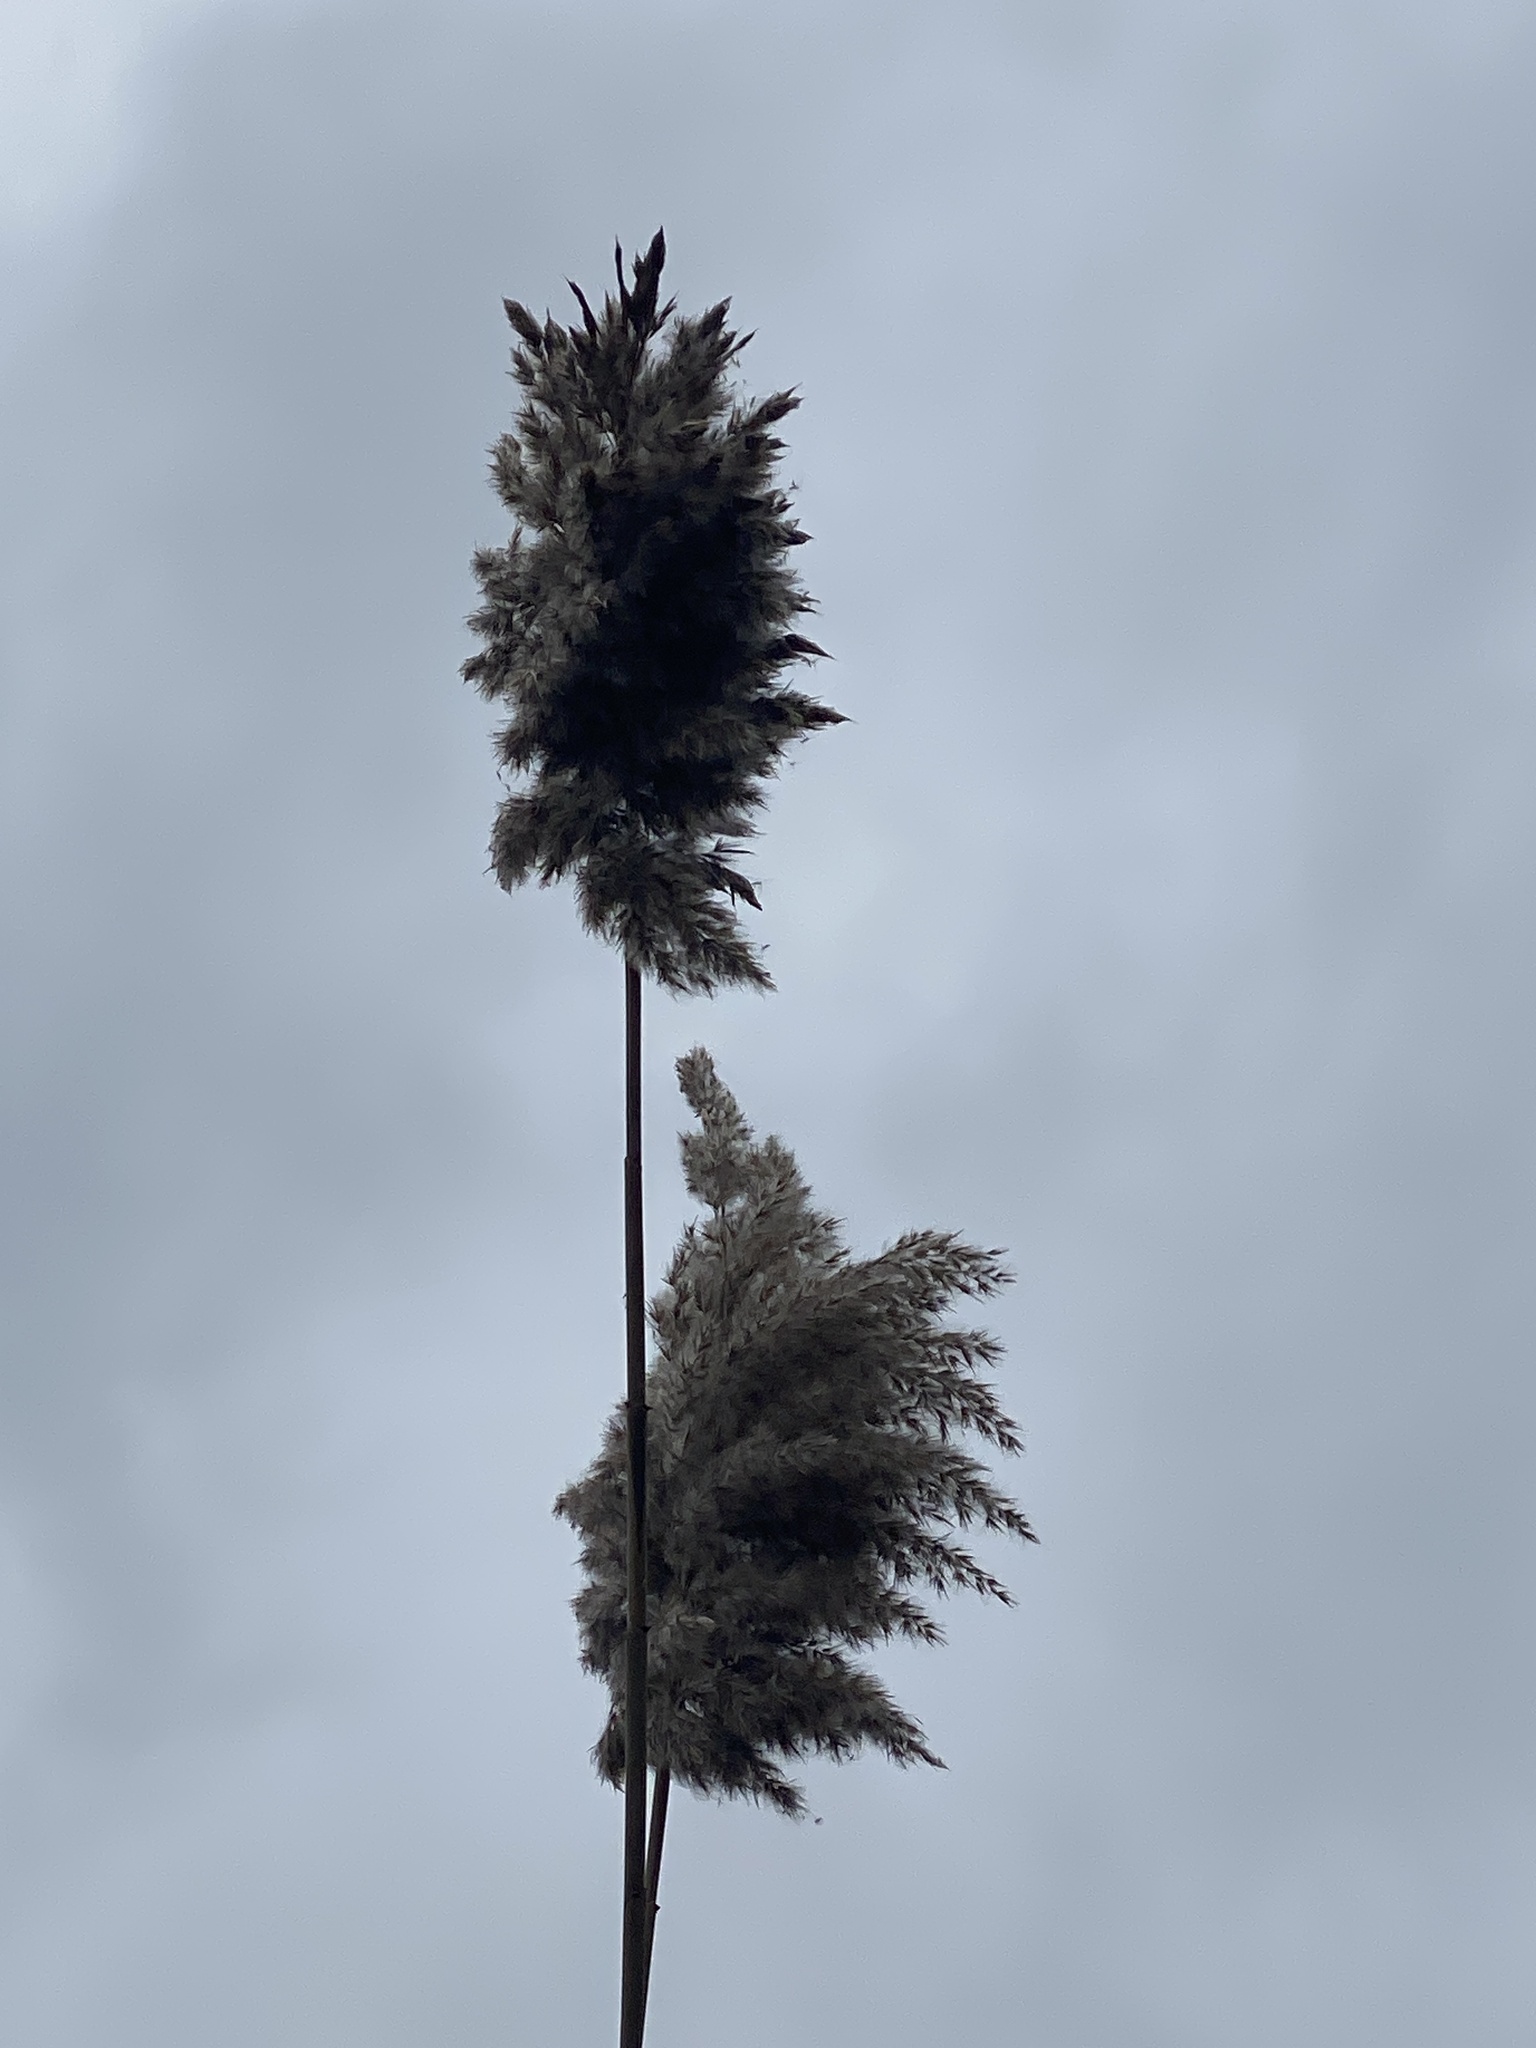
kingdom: Plantae
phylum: Tracheophyta
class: Liliopsida
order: Poales
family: Poaceae
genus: Phragmites
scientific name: Phragmites australis
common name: Common reed
